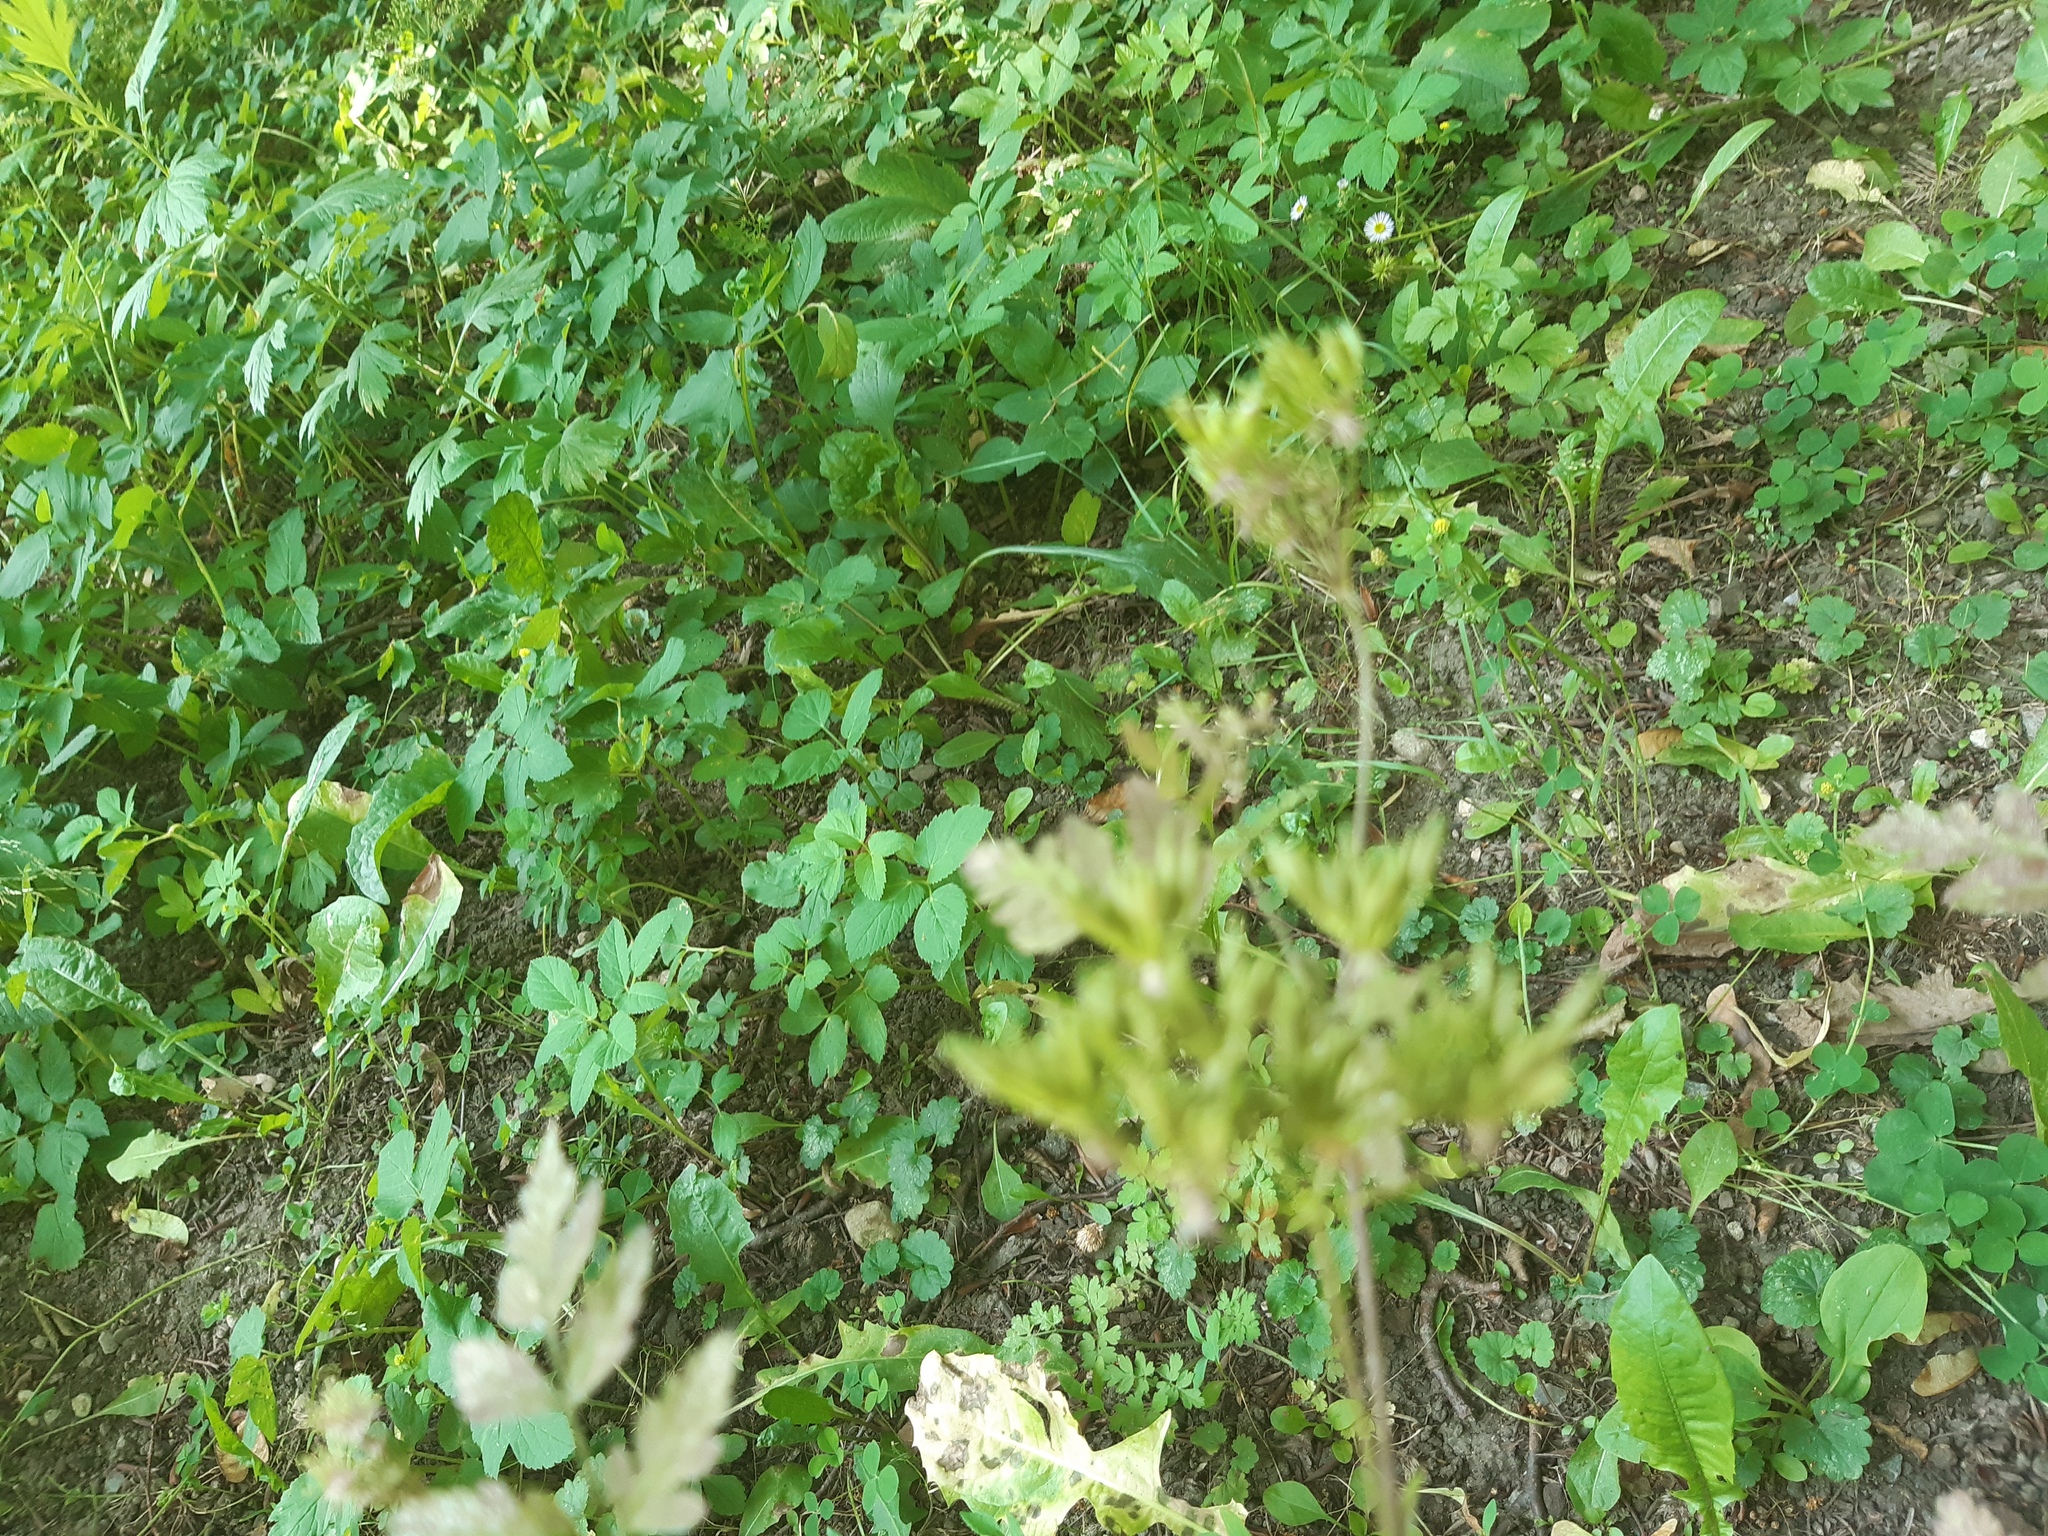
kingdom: Plantae
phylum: Tracheophyta
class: Magnoliopsida
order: Apiales
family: Apiaceae
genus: Chaerophyllum
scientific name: Chaerophyllum temulum
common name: Rough chervil
